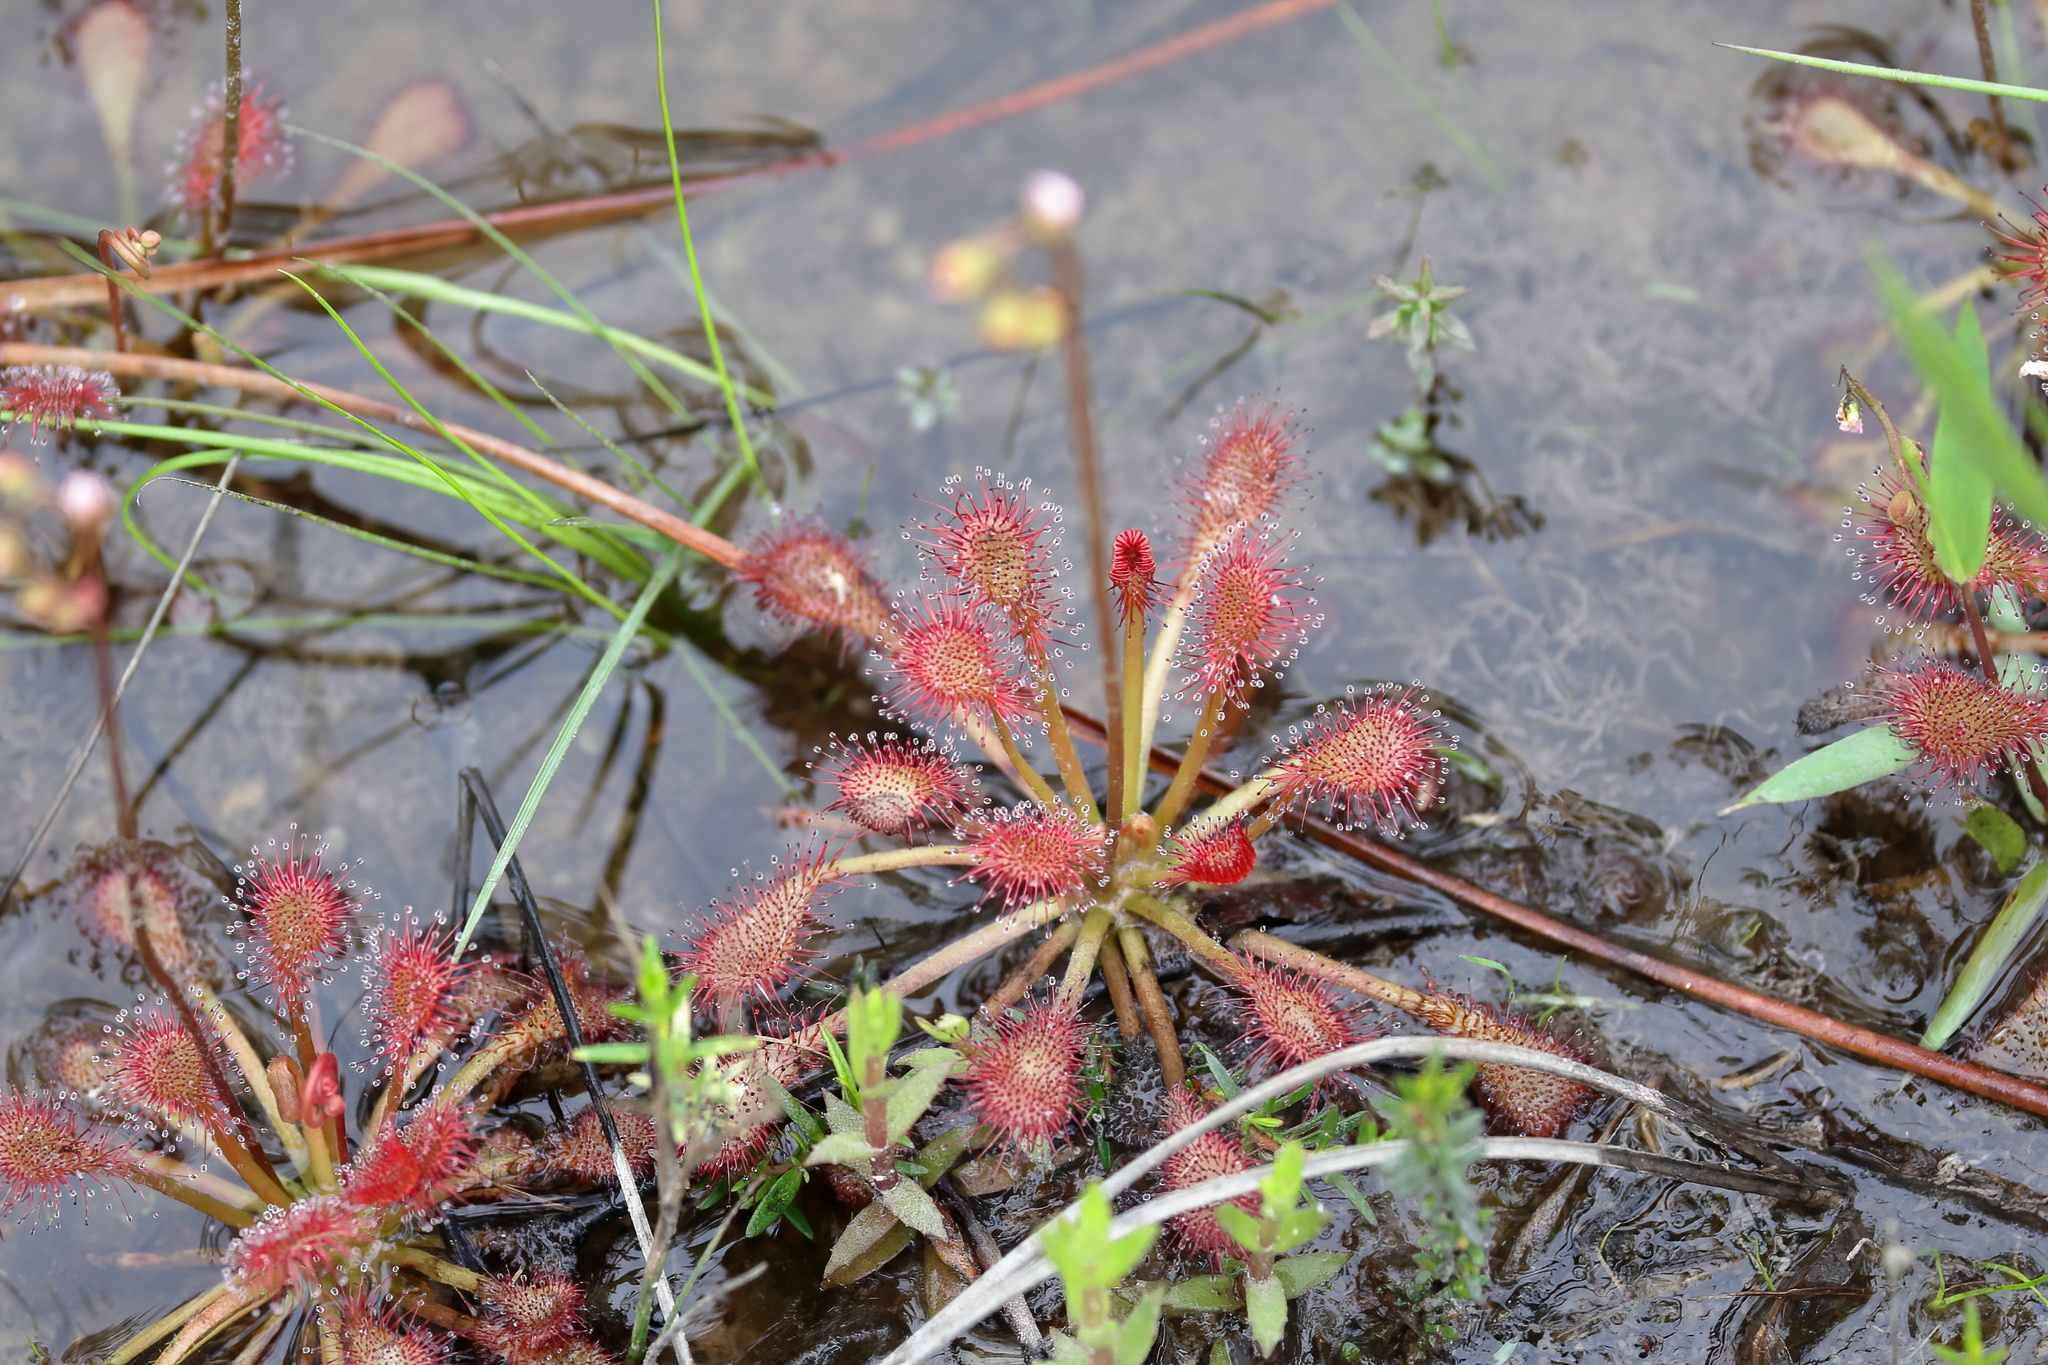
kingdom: Plantae
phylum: Tracheophyta
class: Magnoliopsida
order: Caryophyllales
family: Droseraceae
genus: Drosera
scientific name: Drosera capillaris
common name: Pink sundew
